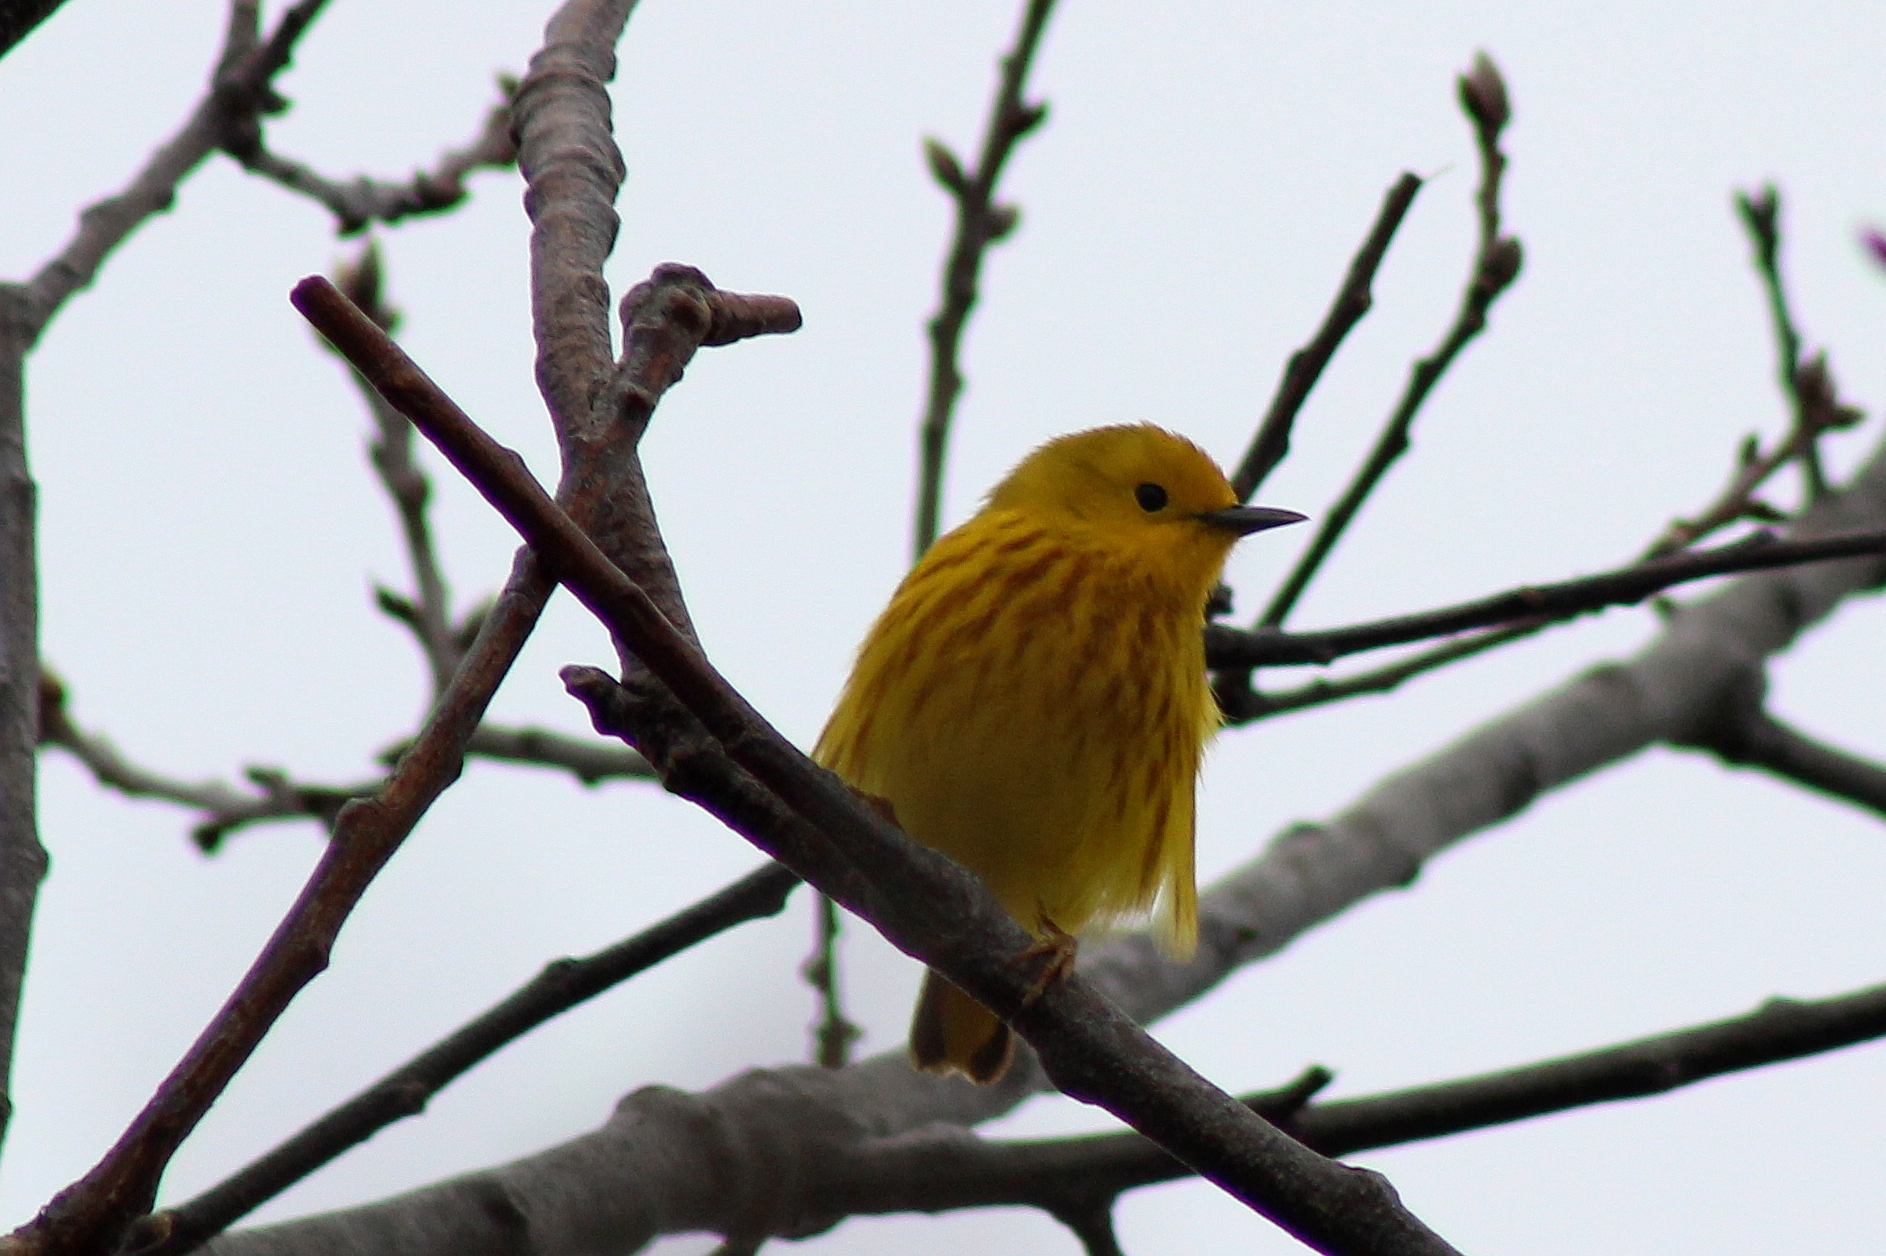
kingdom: Animalia
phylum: Chordata
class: Aves
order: Passeriformes
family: Parulidae
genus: Setophaga
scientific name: Setophaga petechia
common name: Yellow warbler
